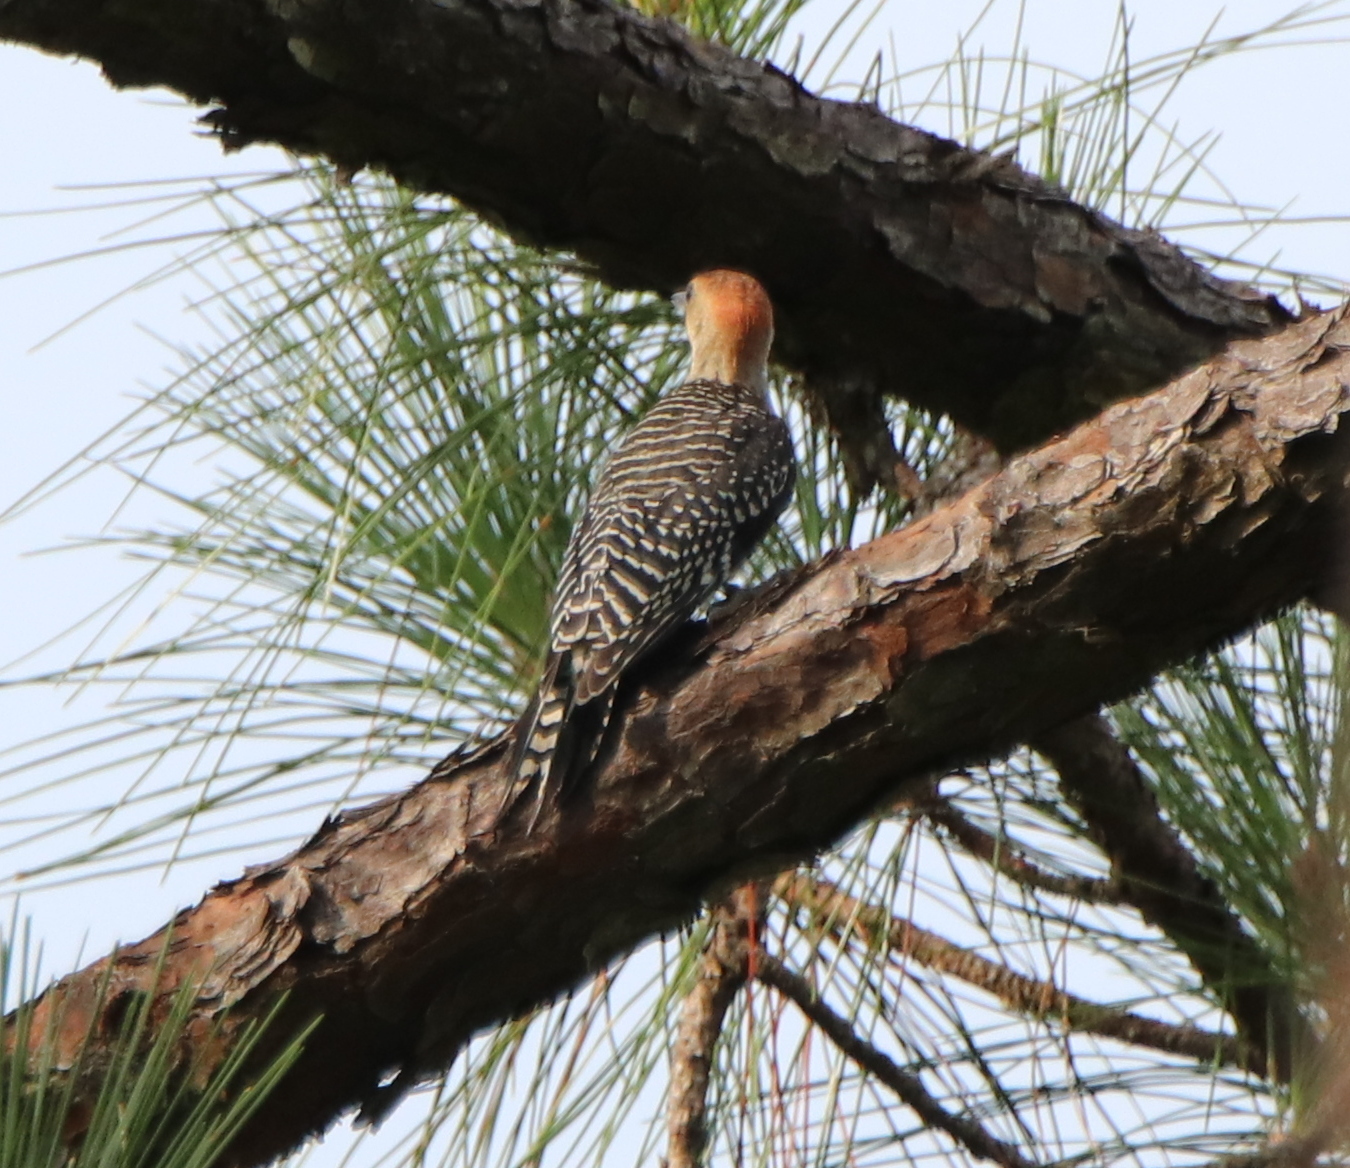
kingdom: Animalia
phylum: Chordata
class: Aves
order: Piciformes
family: Picidae
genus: Melanerpes
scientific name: Melanerpes carolinus
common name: Red-bellied woodpecker
